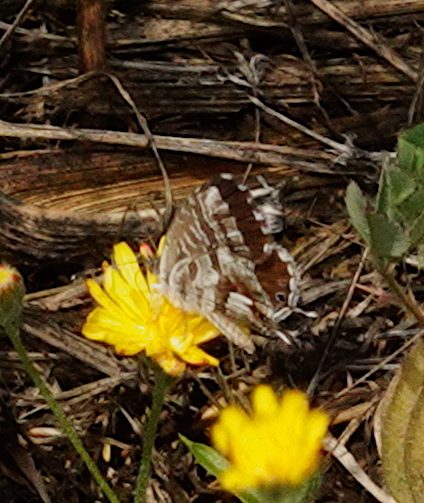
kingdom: Animalia
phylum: Arthropoda
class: Insecta
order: Lepidoptera
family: Lycaenidae
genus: Cacyreus
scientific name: Cacyreus marshalli
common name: Geranium bronze
